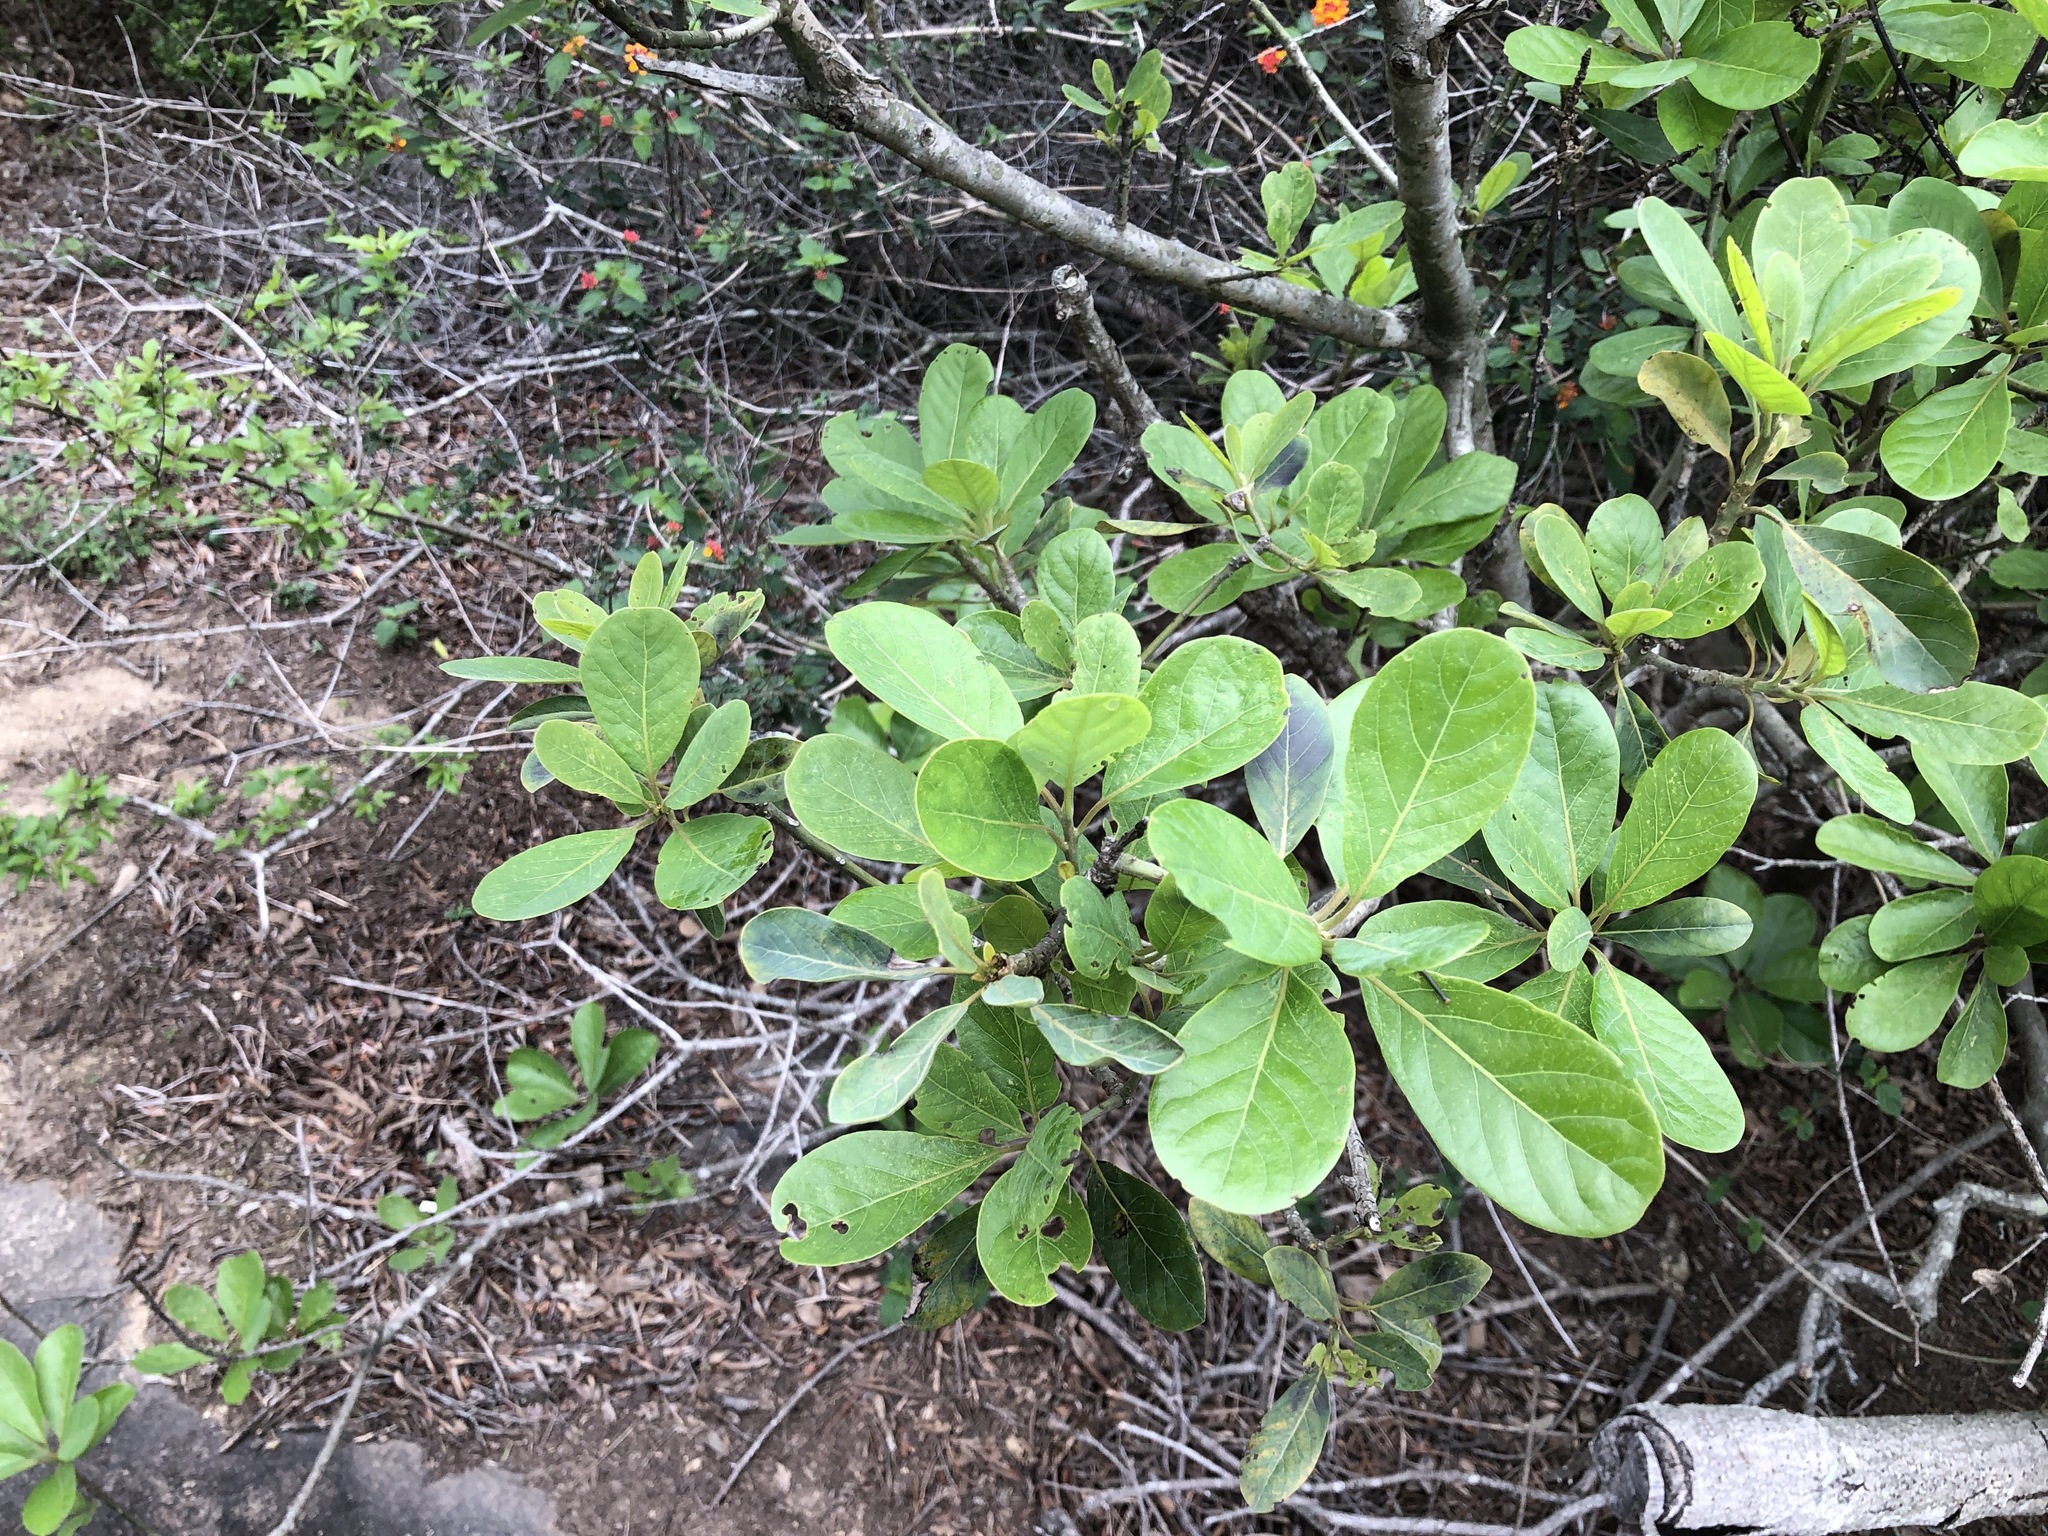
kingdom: Plantae
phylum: Tracheophyta
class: Magnoliopsida
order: Laurales
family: Lauraceae
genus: Litsea
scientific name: Litsea glutinosa
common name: Indian-laurel
